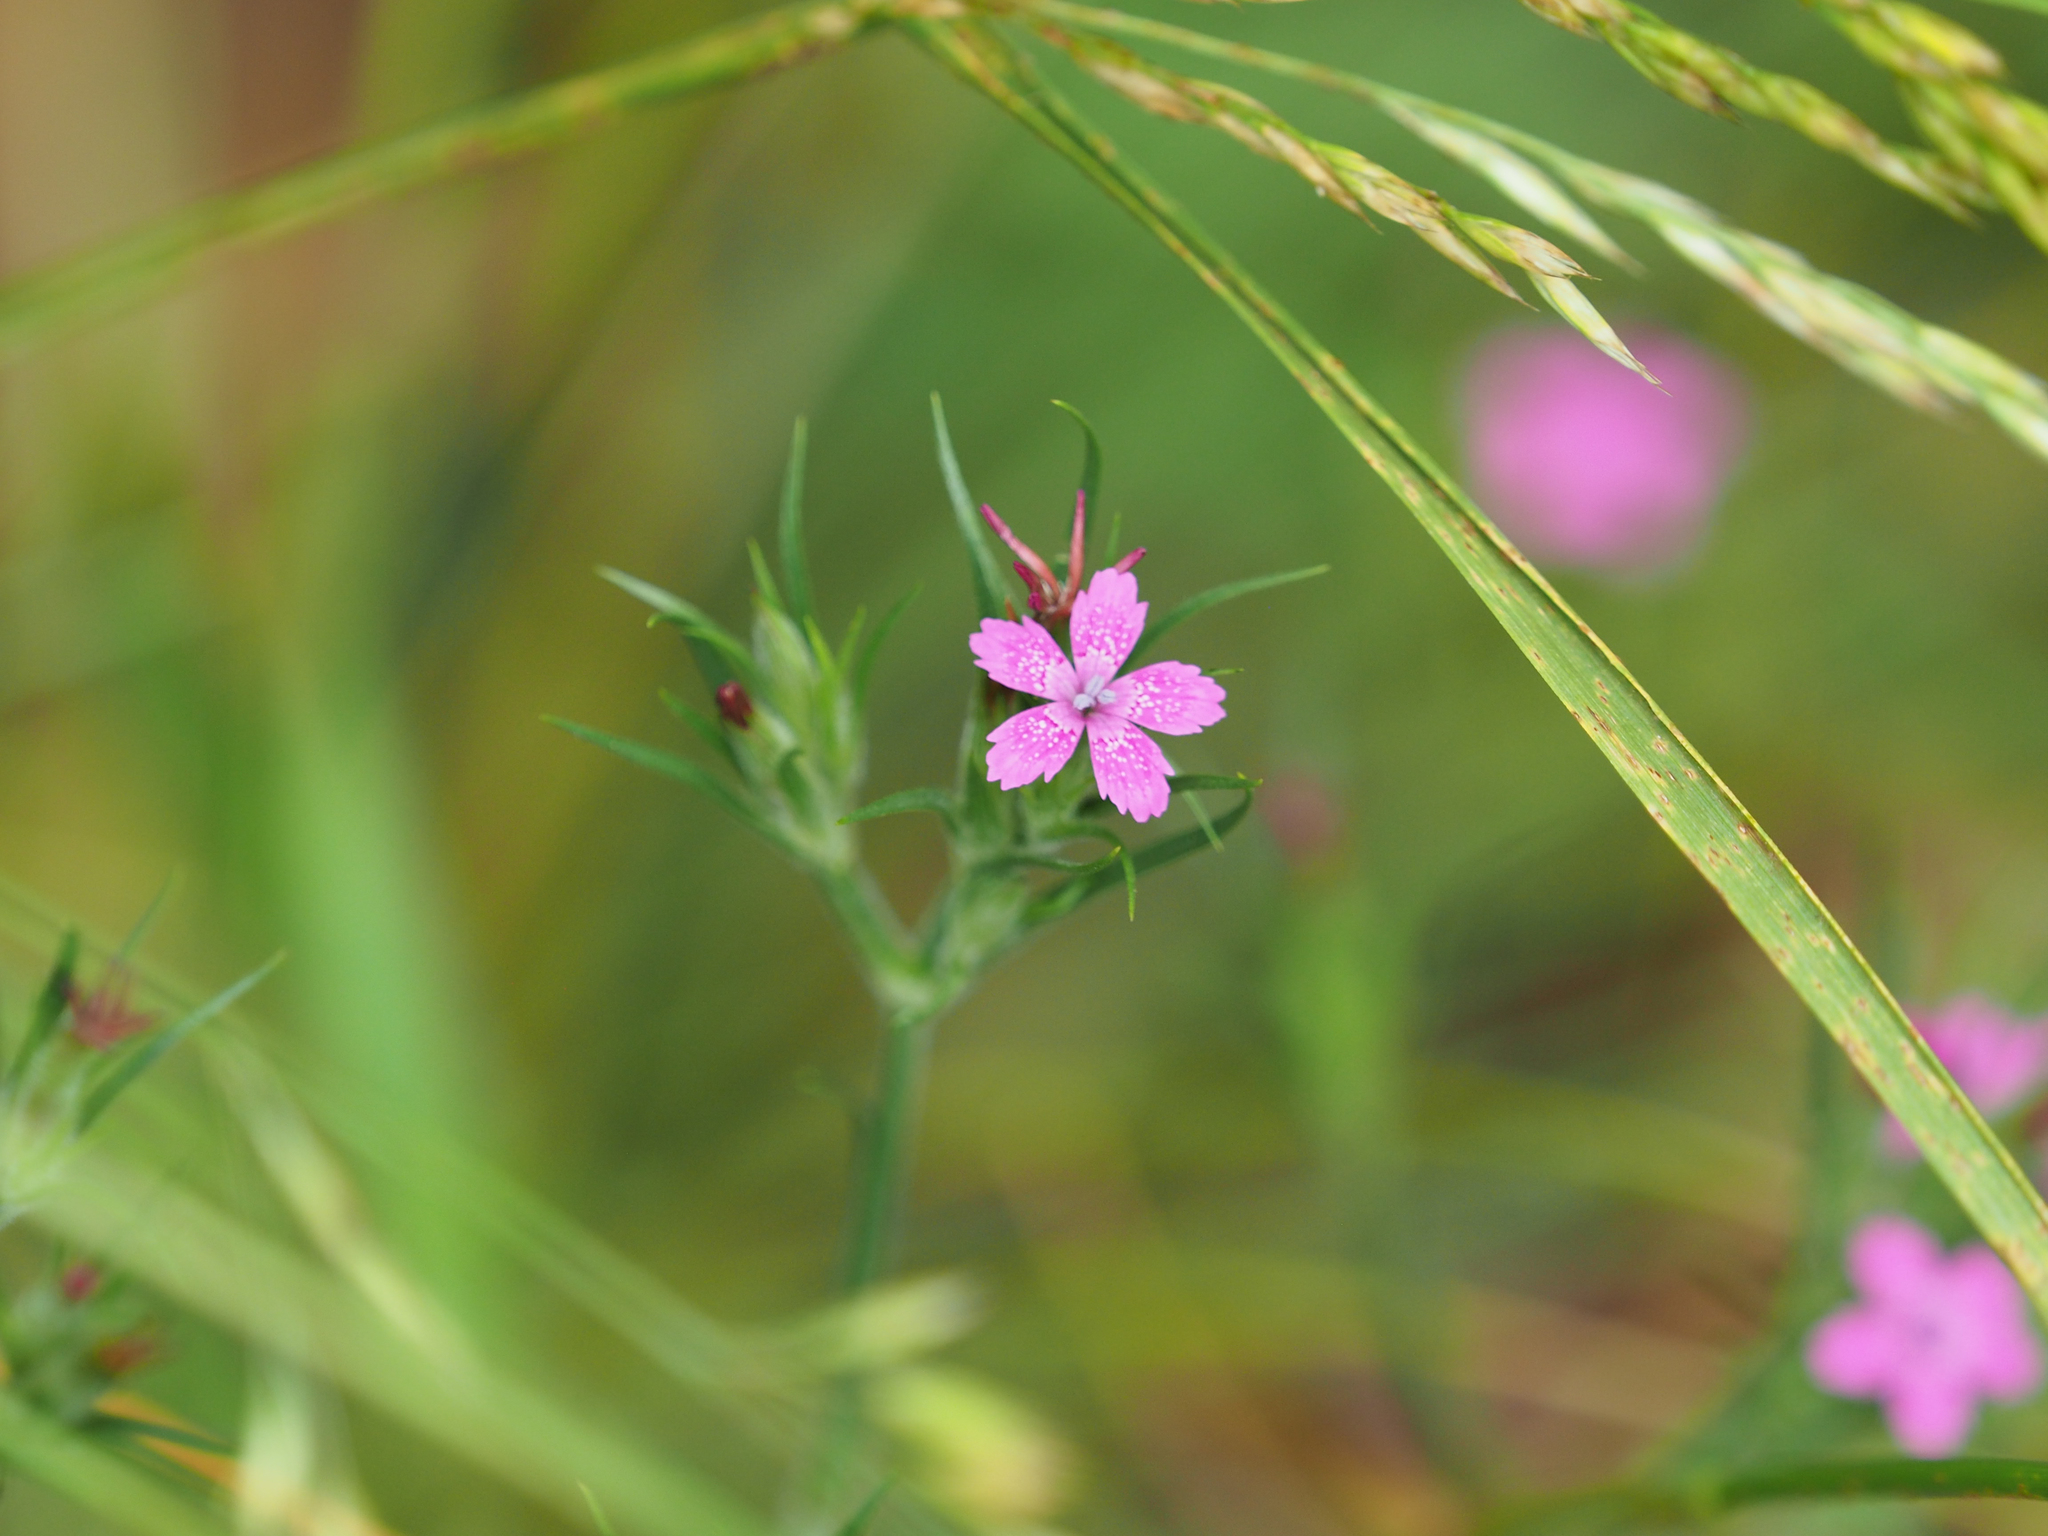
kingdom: Plantae
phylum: Tracheophyta
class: Magnoliopsida
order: Caryophyllales
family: Caryophyllaceae
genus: Dianthus
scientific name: Dianthus armeria
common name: Deptford pink
